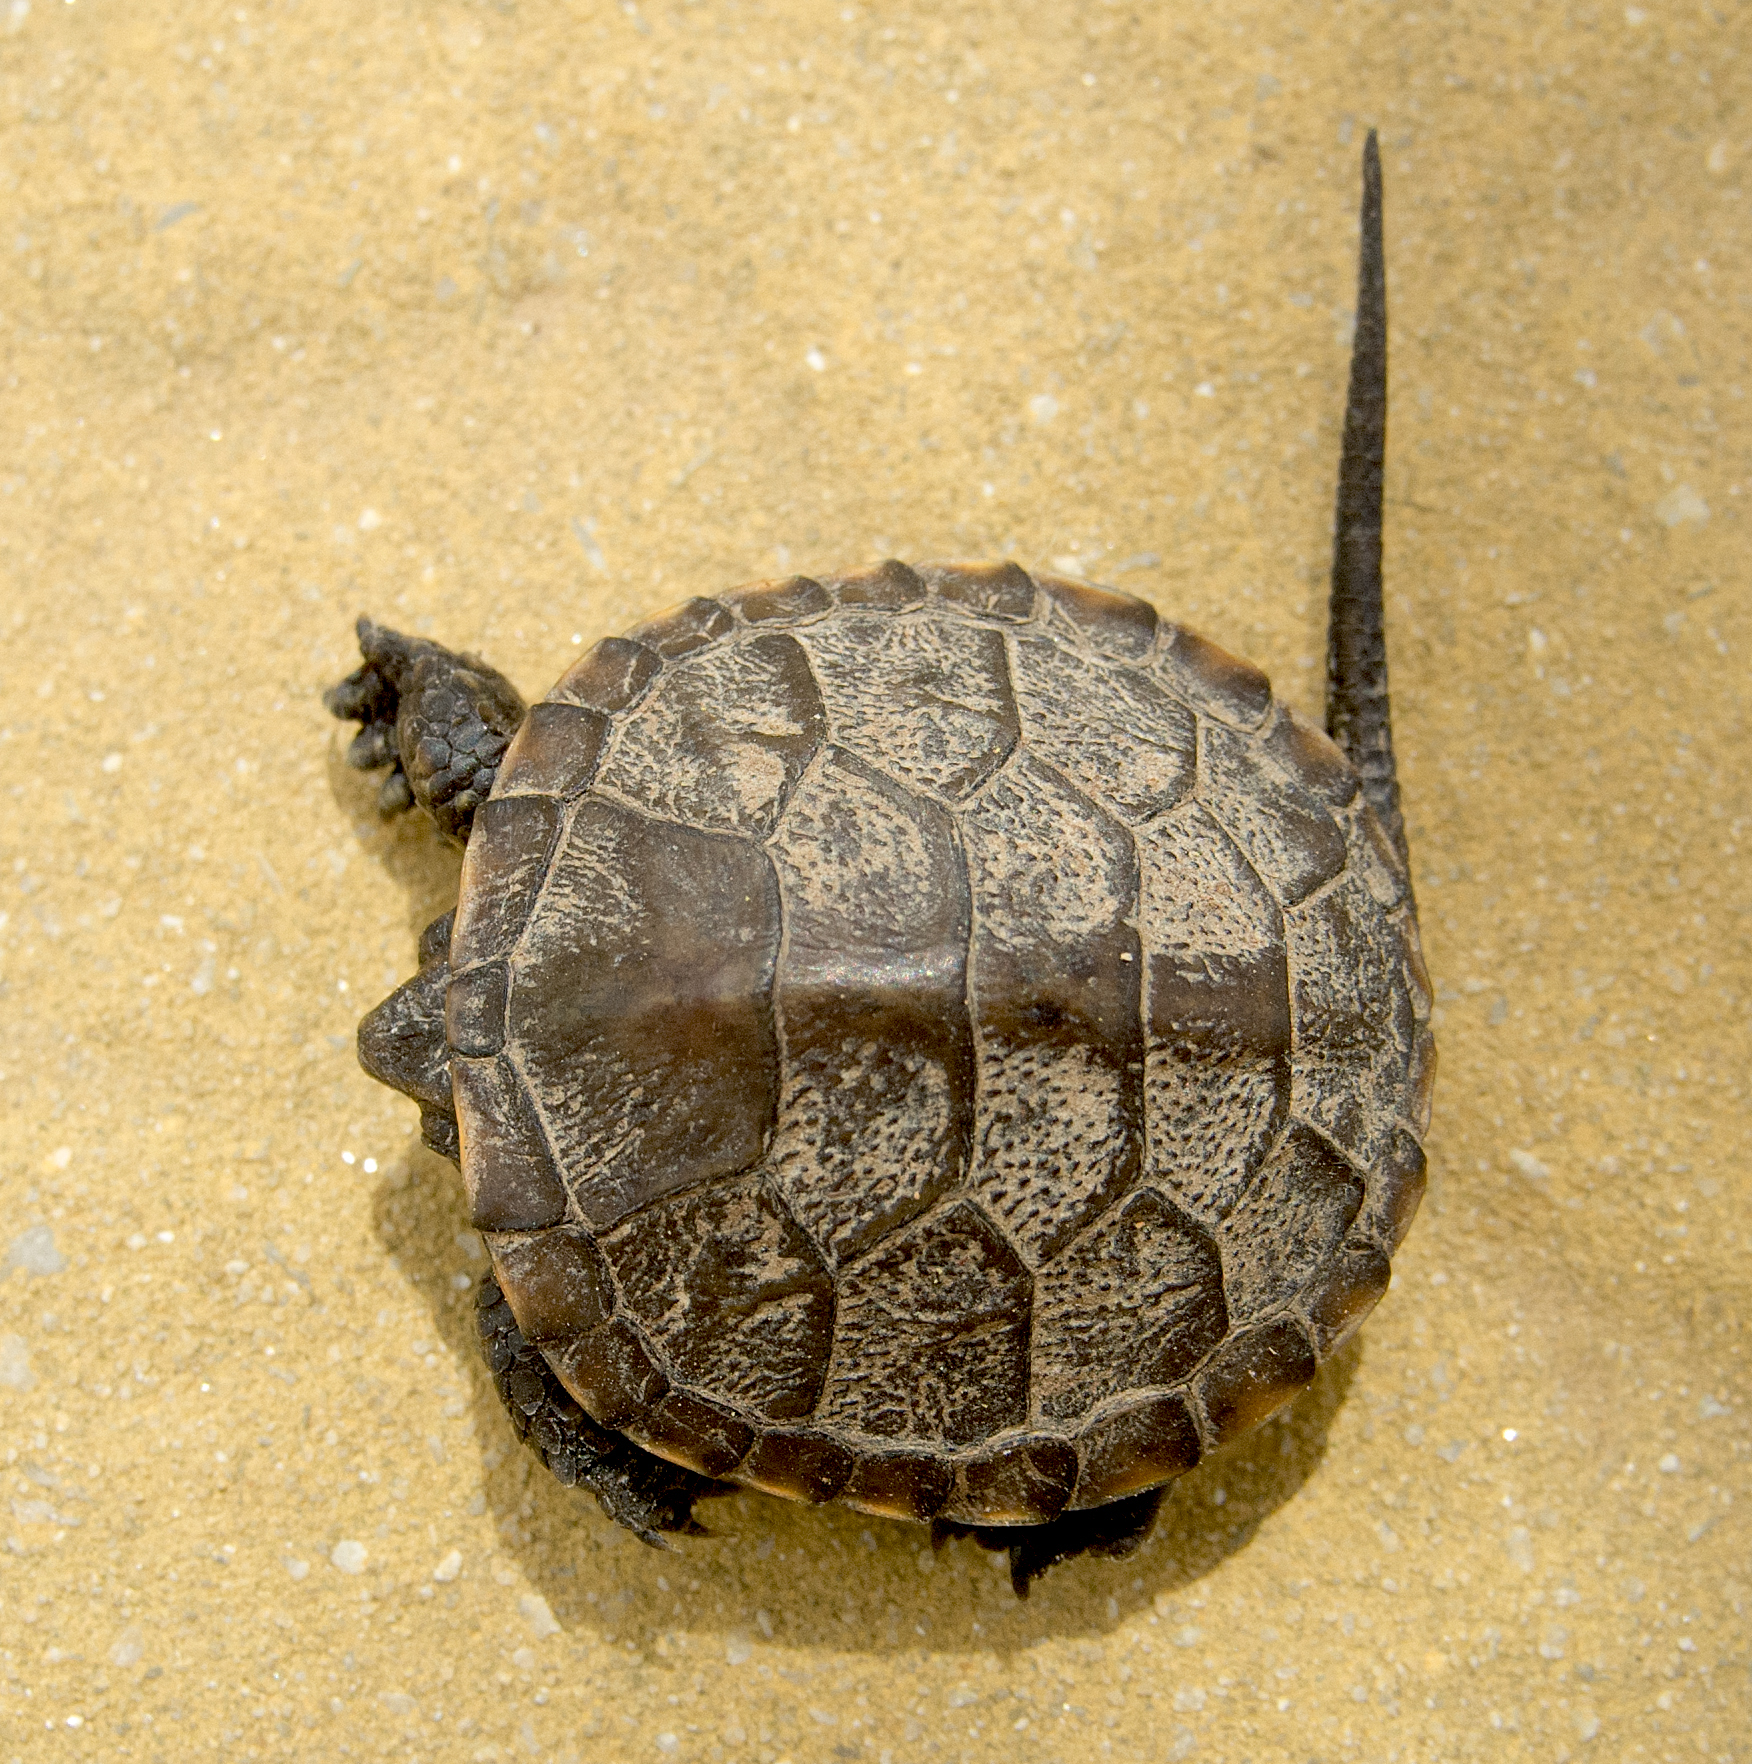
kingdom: Animalia
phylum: Chordata
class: Testudines
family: Emydidae
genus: Emys
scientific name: Emys orbicularis
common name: European pond turtle
